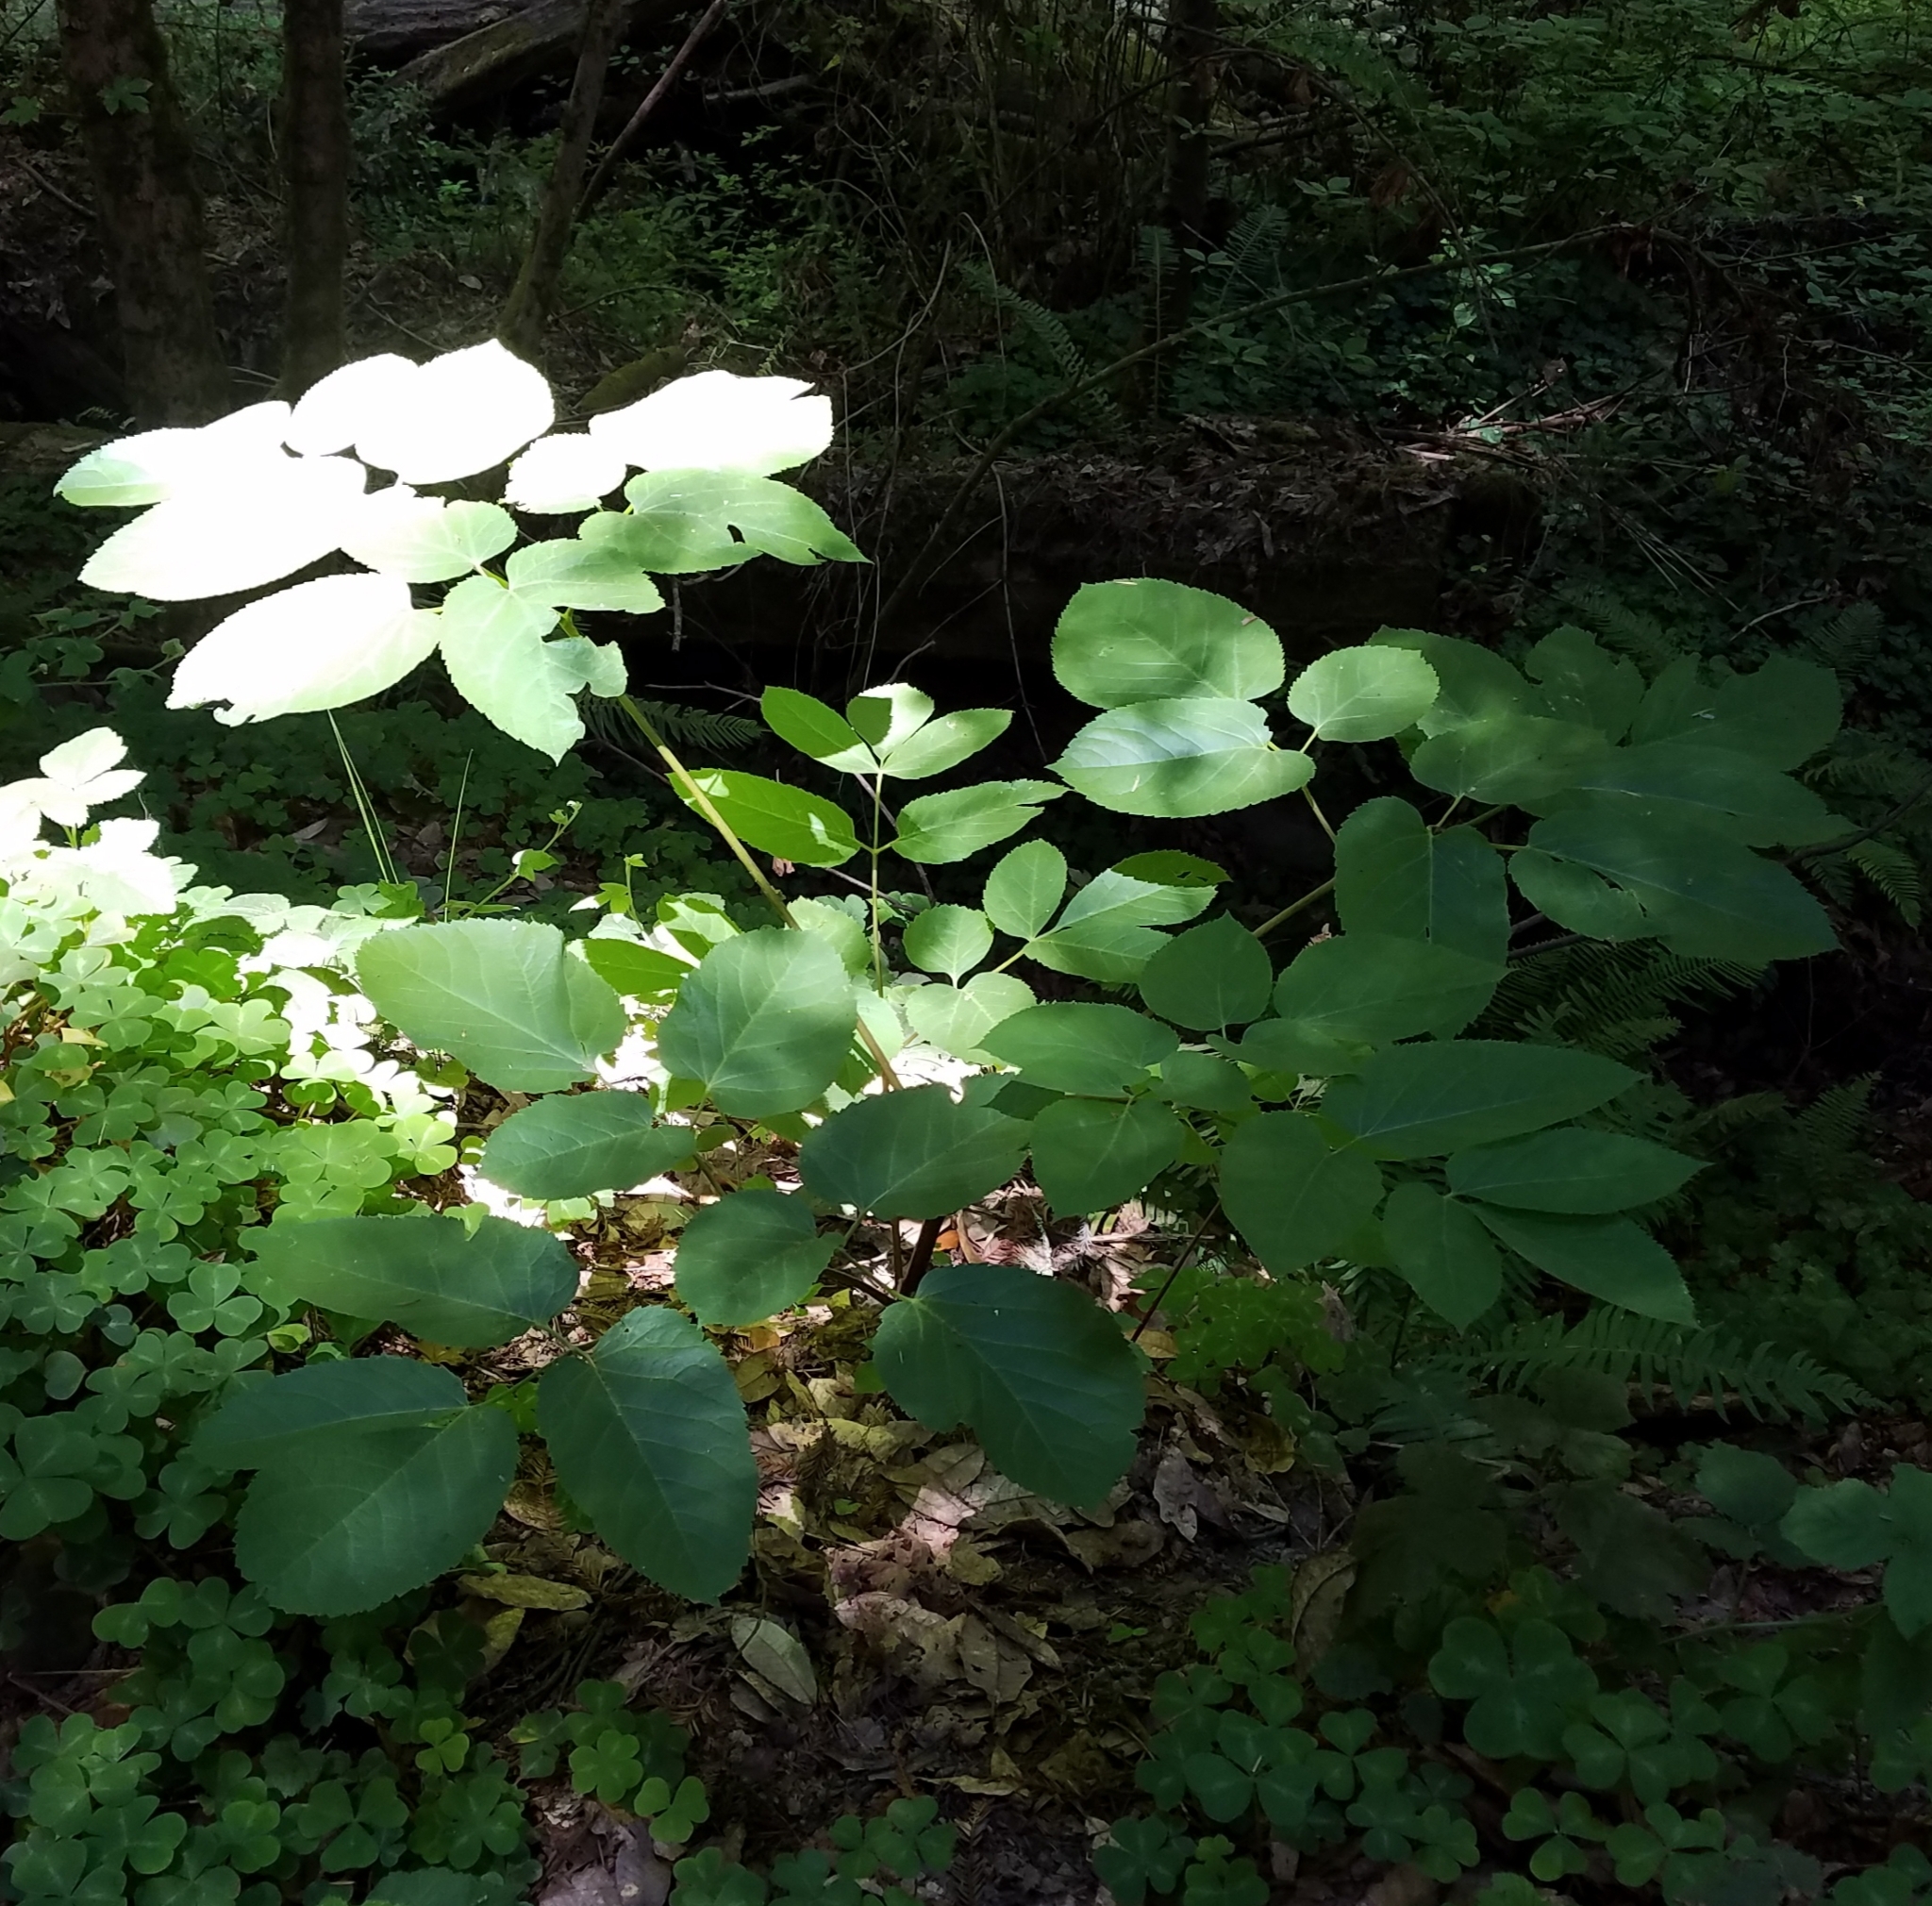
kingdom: Plantae
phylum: Tracheophyta
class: Magnoliopsida
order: Apiales
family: Araliaceae
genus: Aralia
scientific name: Aralia californica
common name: California-ginseng
